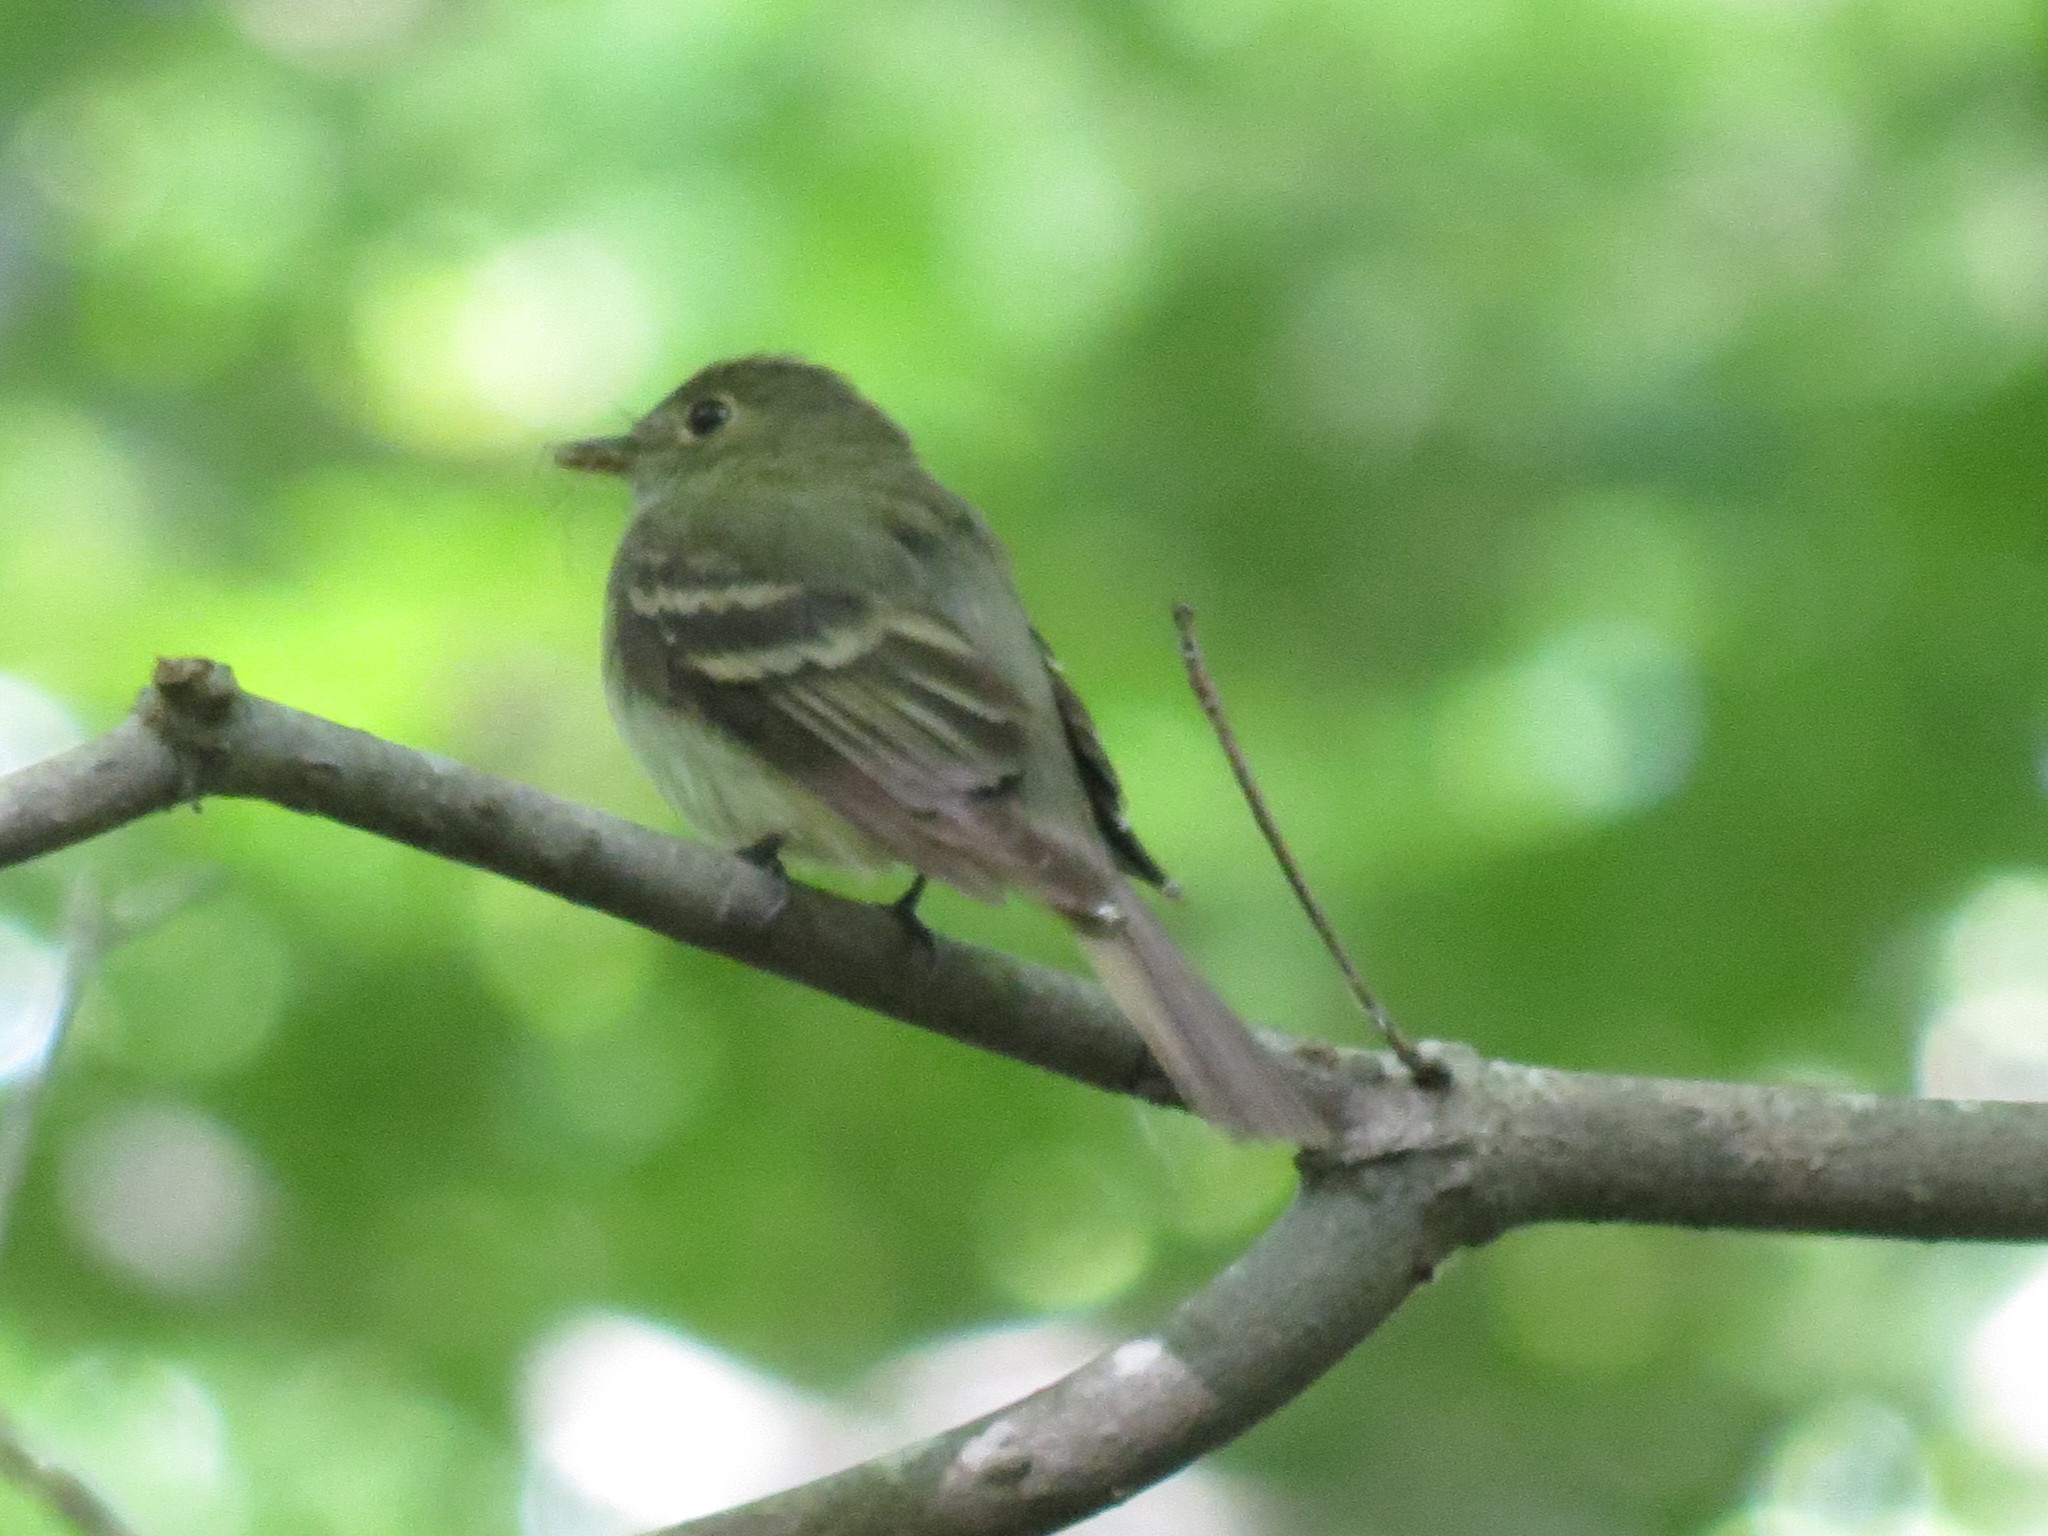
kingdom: Animalia
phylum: Chordata
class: Aves
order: Passeriformes
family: Tyrannidae
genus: Empidonax
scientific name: Empidonax virescens
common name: Acadian flycatcher
